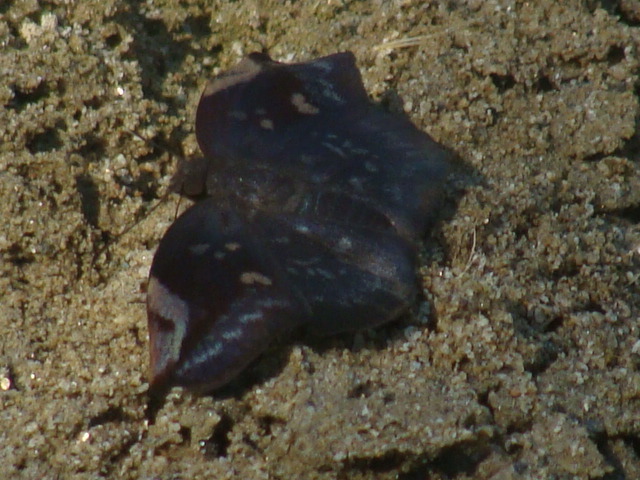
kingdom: Animalia
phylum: Arthropoda
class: Insecta
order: Lepidoptera
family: Hesperiidae
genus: Achlyodes
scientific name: Achlyodes thraso
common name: Sickle-winged skipper
